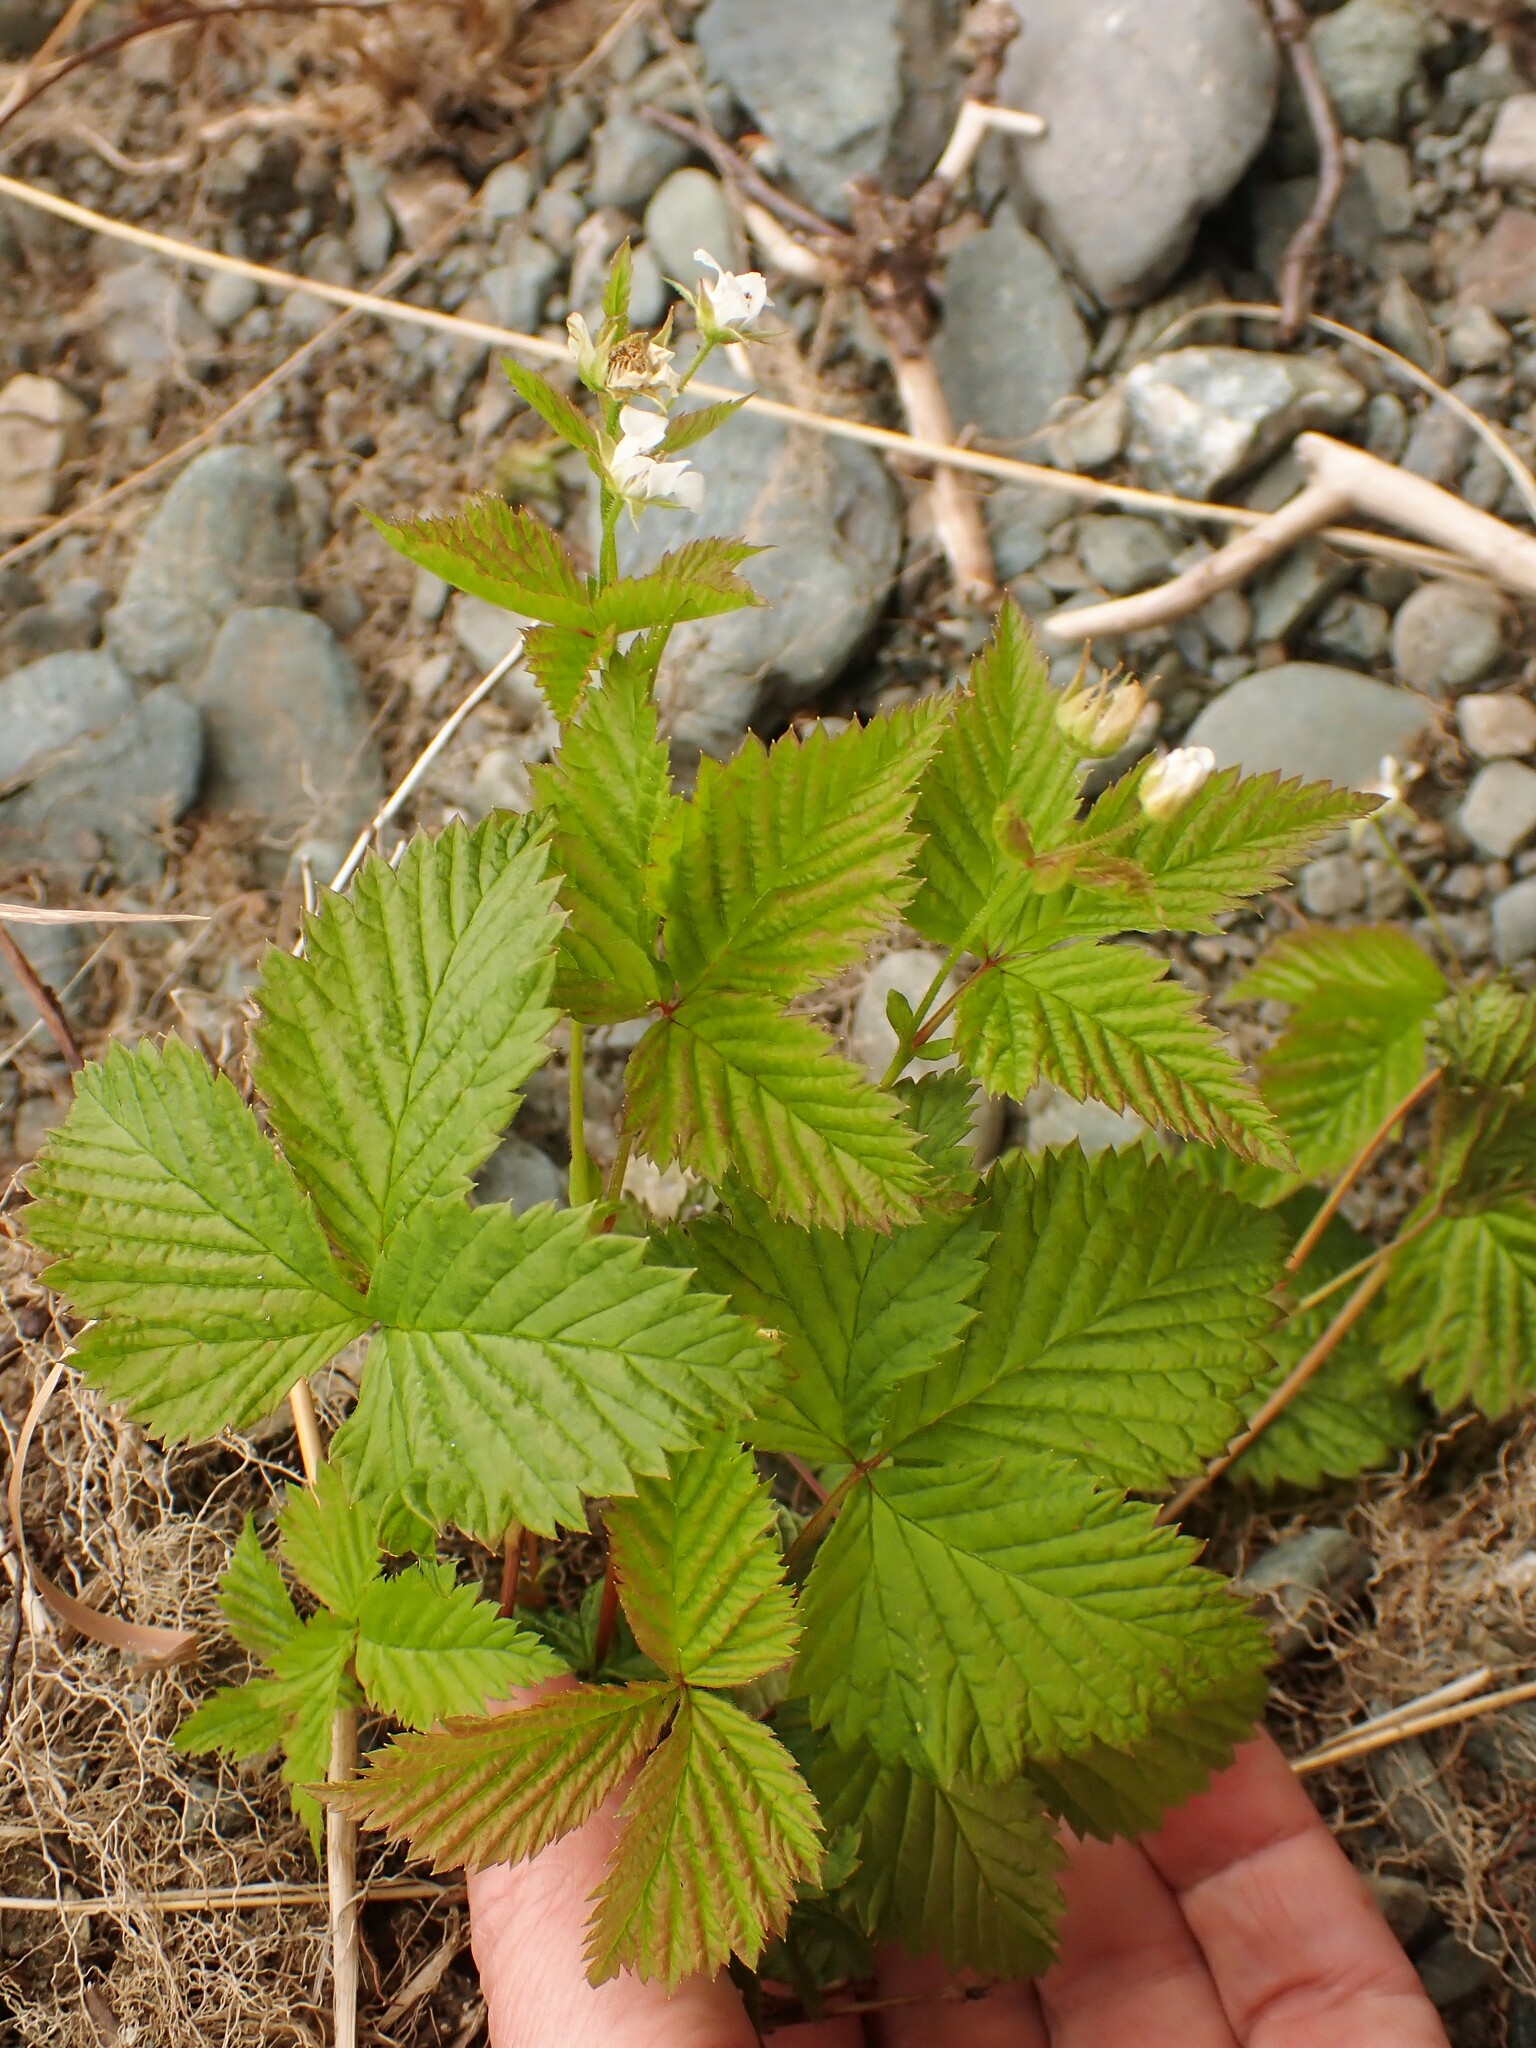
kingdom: Plantae
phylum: Tracheophyta
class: Magnoliopsida
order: Rosales
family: Rosaceae
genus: Rubus
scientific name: Rubus pubescens
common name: Dwarf raspberry
